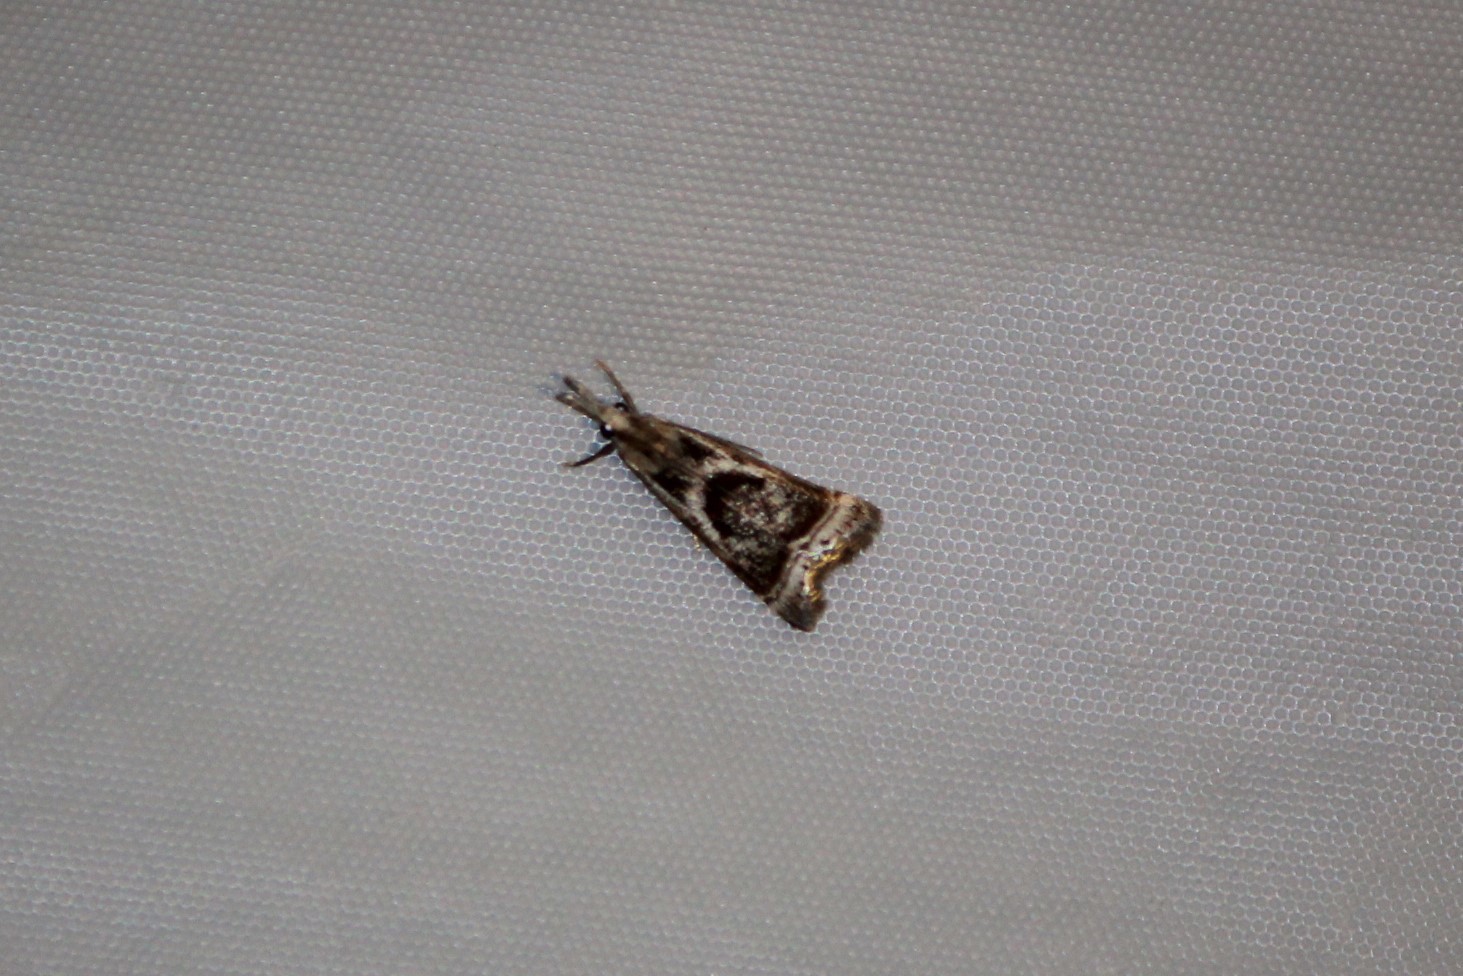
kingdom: Animalia
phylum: Arthropoda
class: Insecta
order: Lepidoptera
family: Crambidae
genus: Microcrambus
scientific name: Microcrambus elegans
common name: Elegant grass-veneer
